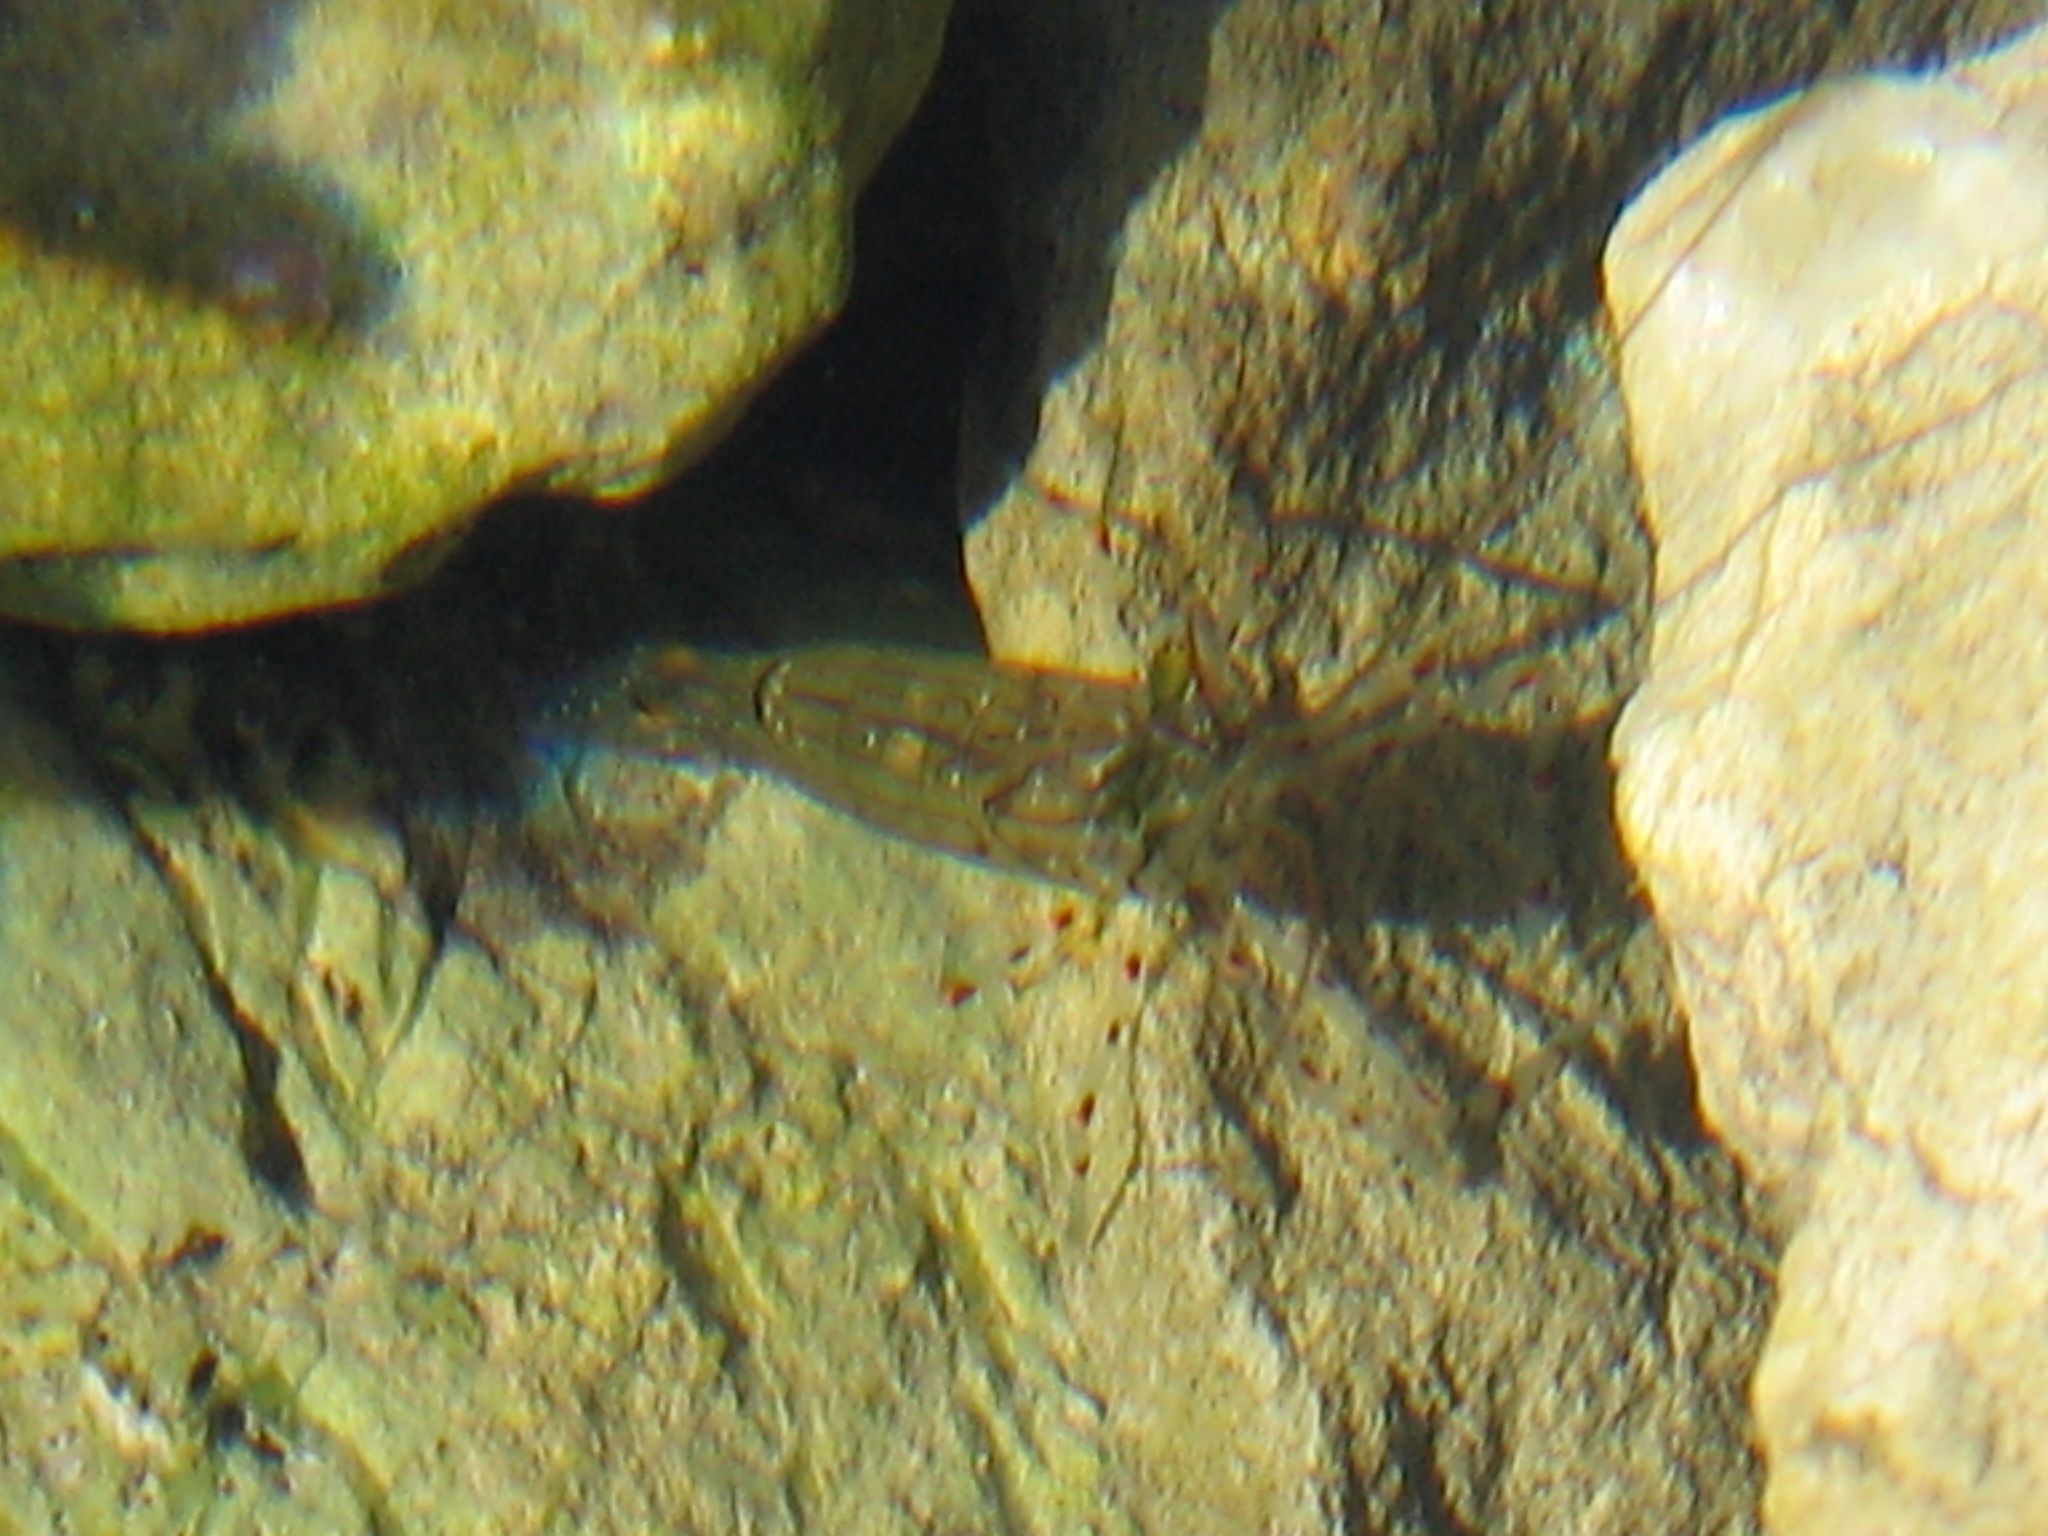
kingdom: Animalia
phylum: Arthropoda
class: Malacostraca
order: Decapoda
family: Palaemonidae
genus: Palaemon
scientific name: Palaemon affinis
